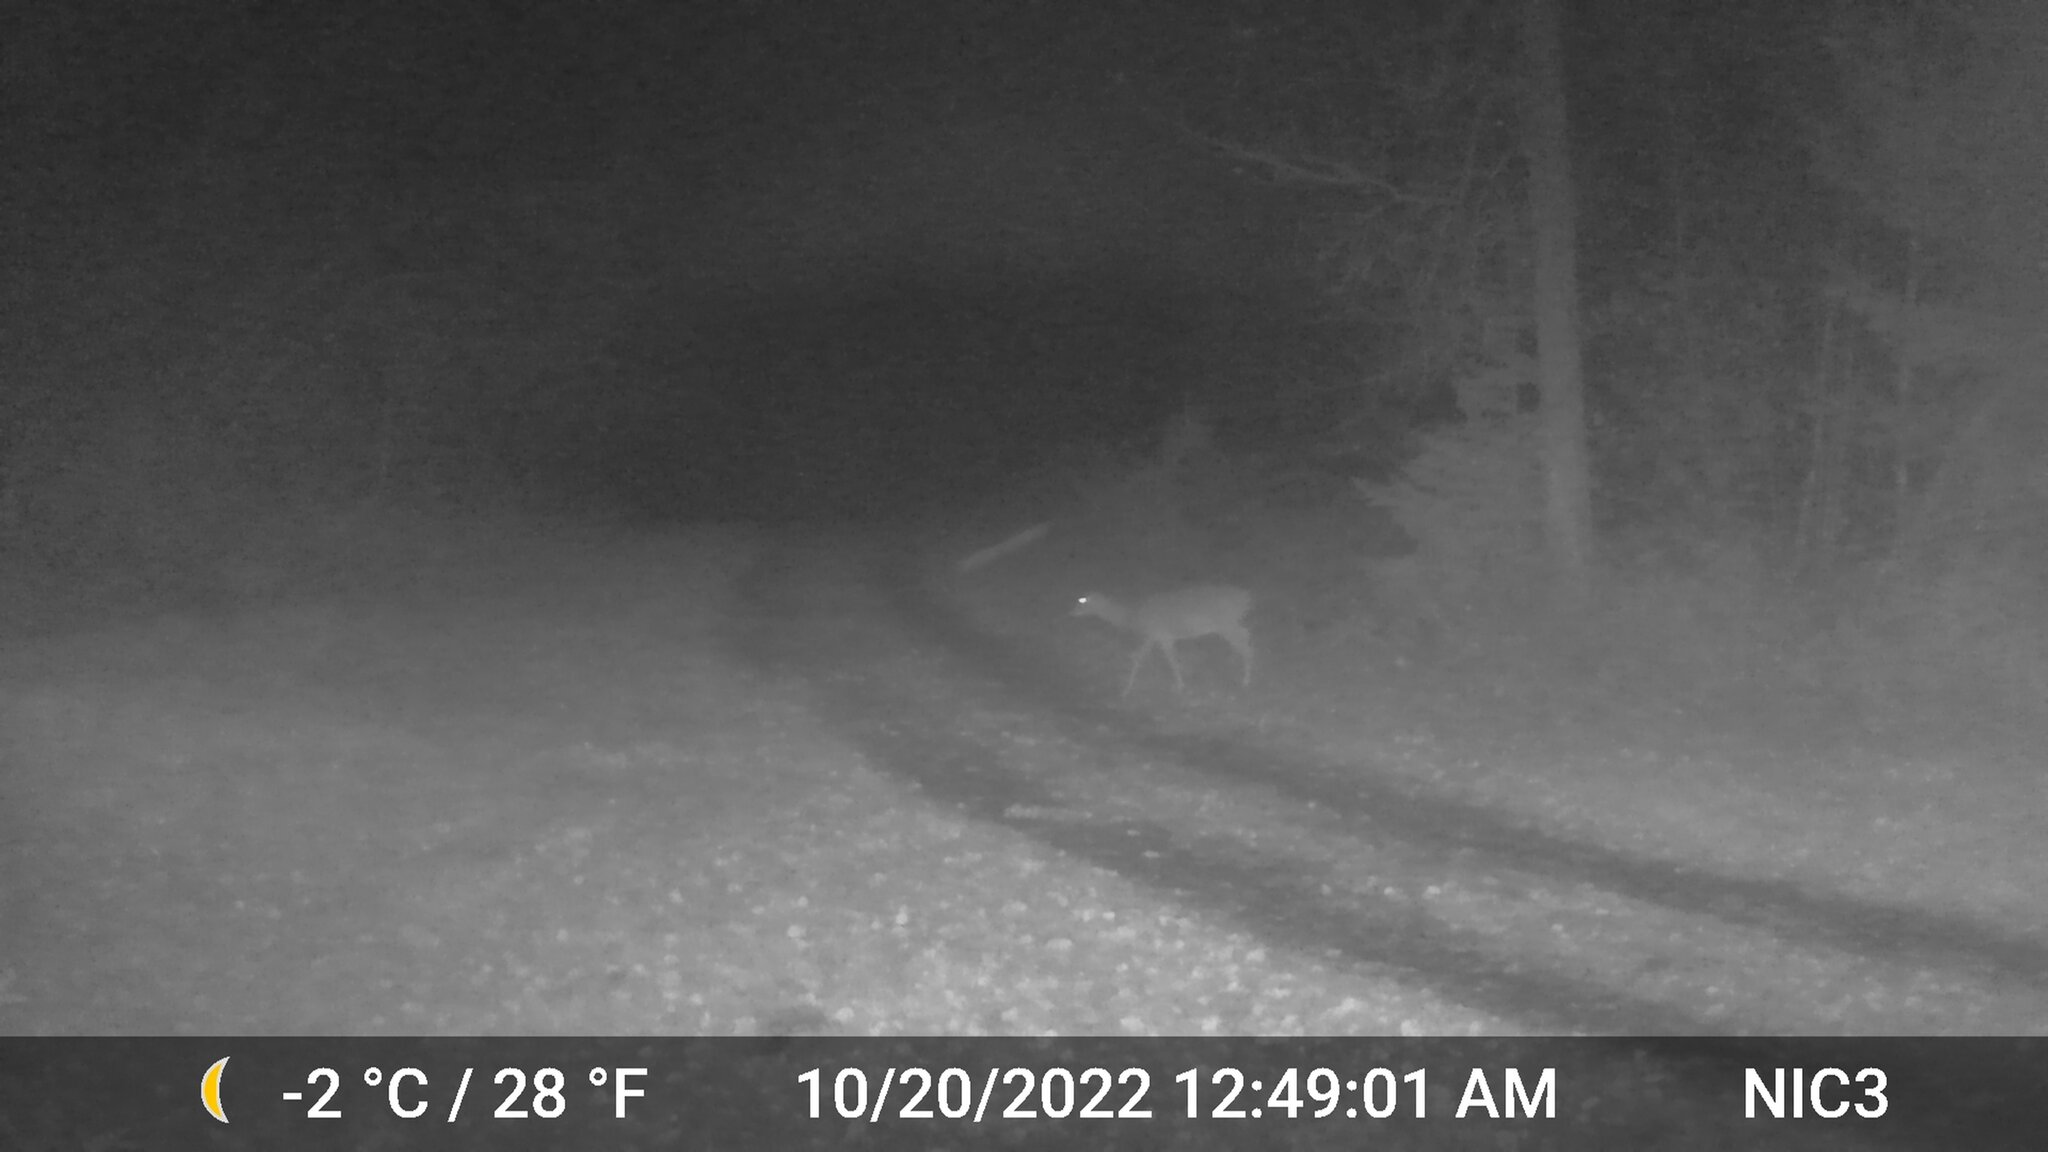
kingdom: Animalia
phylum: Chordata
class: Mammalia
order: Artiodactyla
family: Cervidae
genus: Odocoileus
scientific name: Odocoileus virginianus
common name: White-tailed deer
